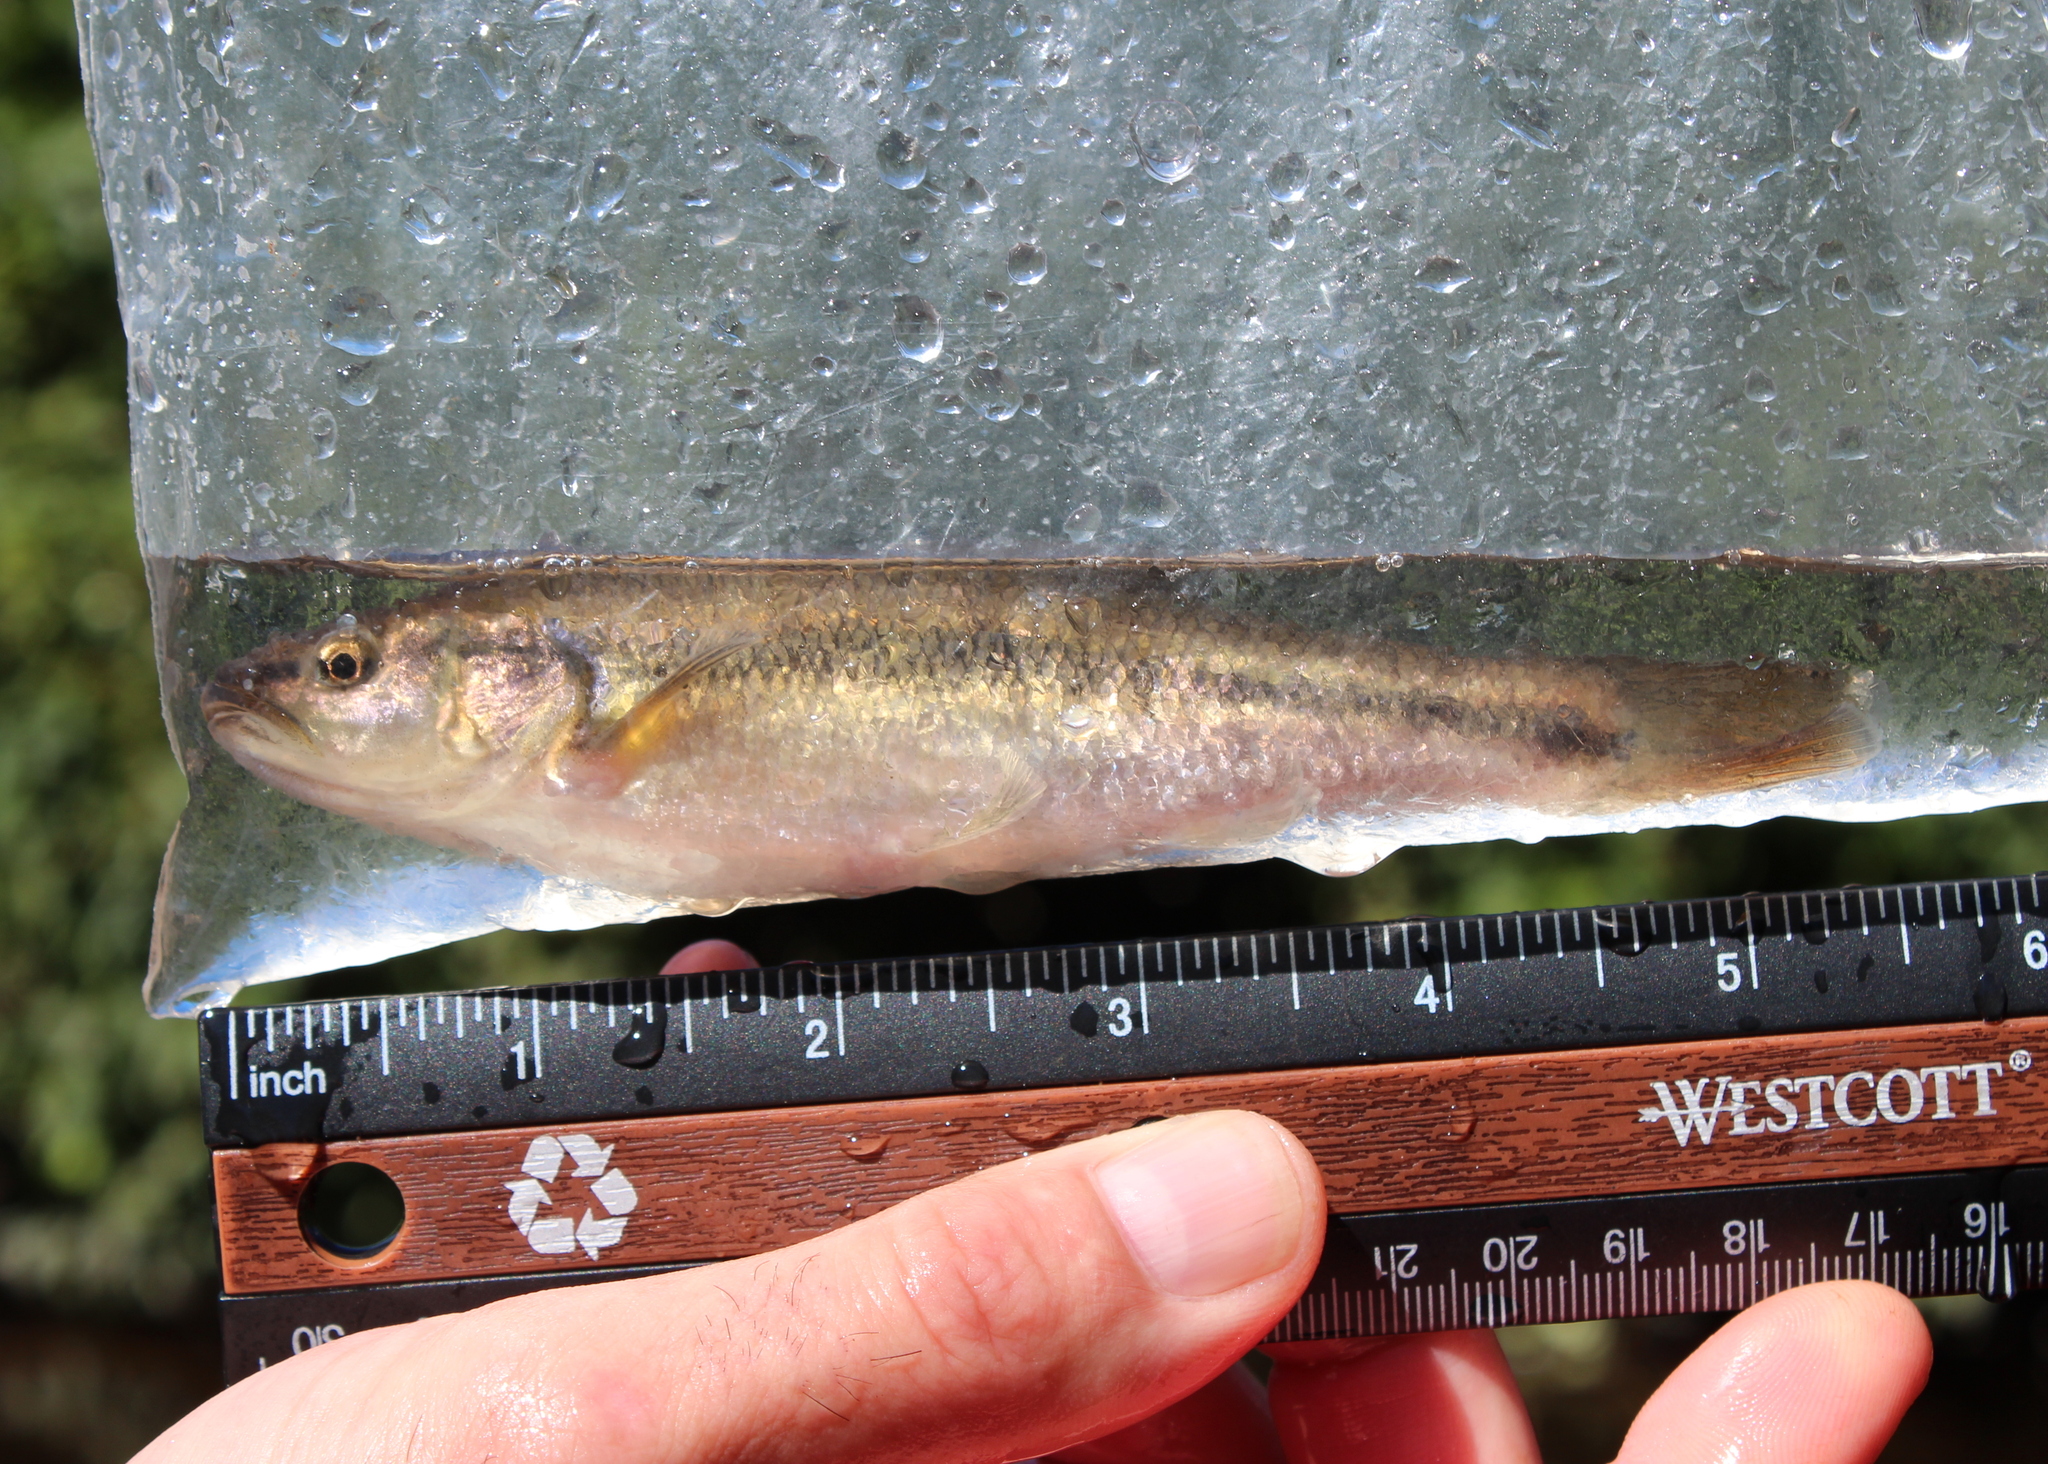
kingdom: Animalia
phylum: Chordata
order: Cypriniformes
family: Cyprinidae
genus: Semotilus
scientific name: Semotilus atromaculatus
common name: Creek chub
